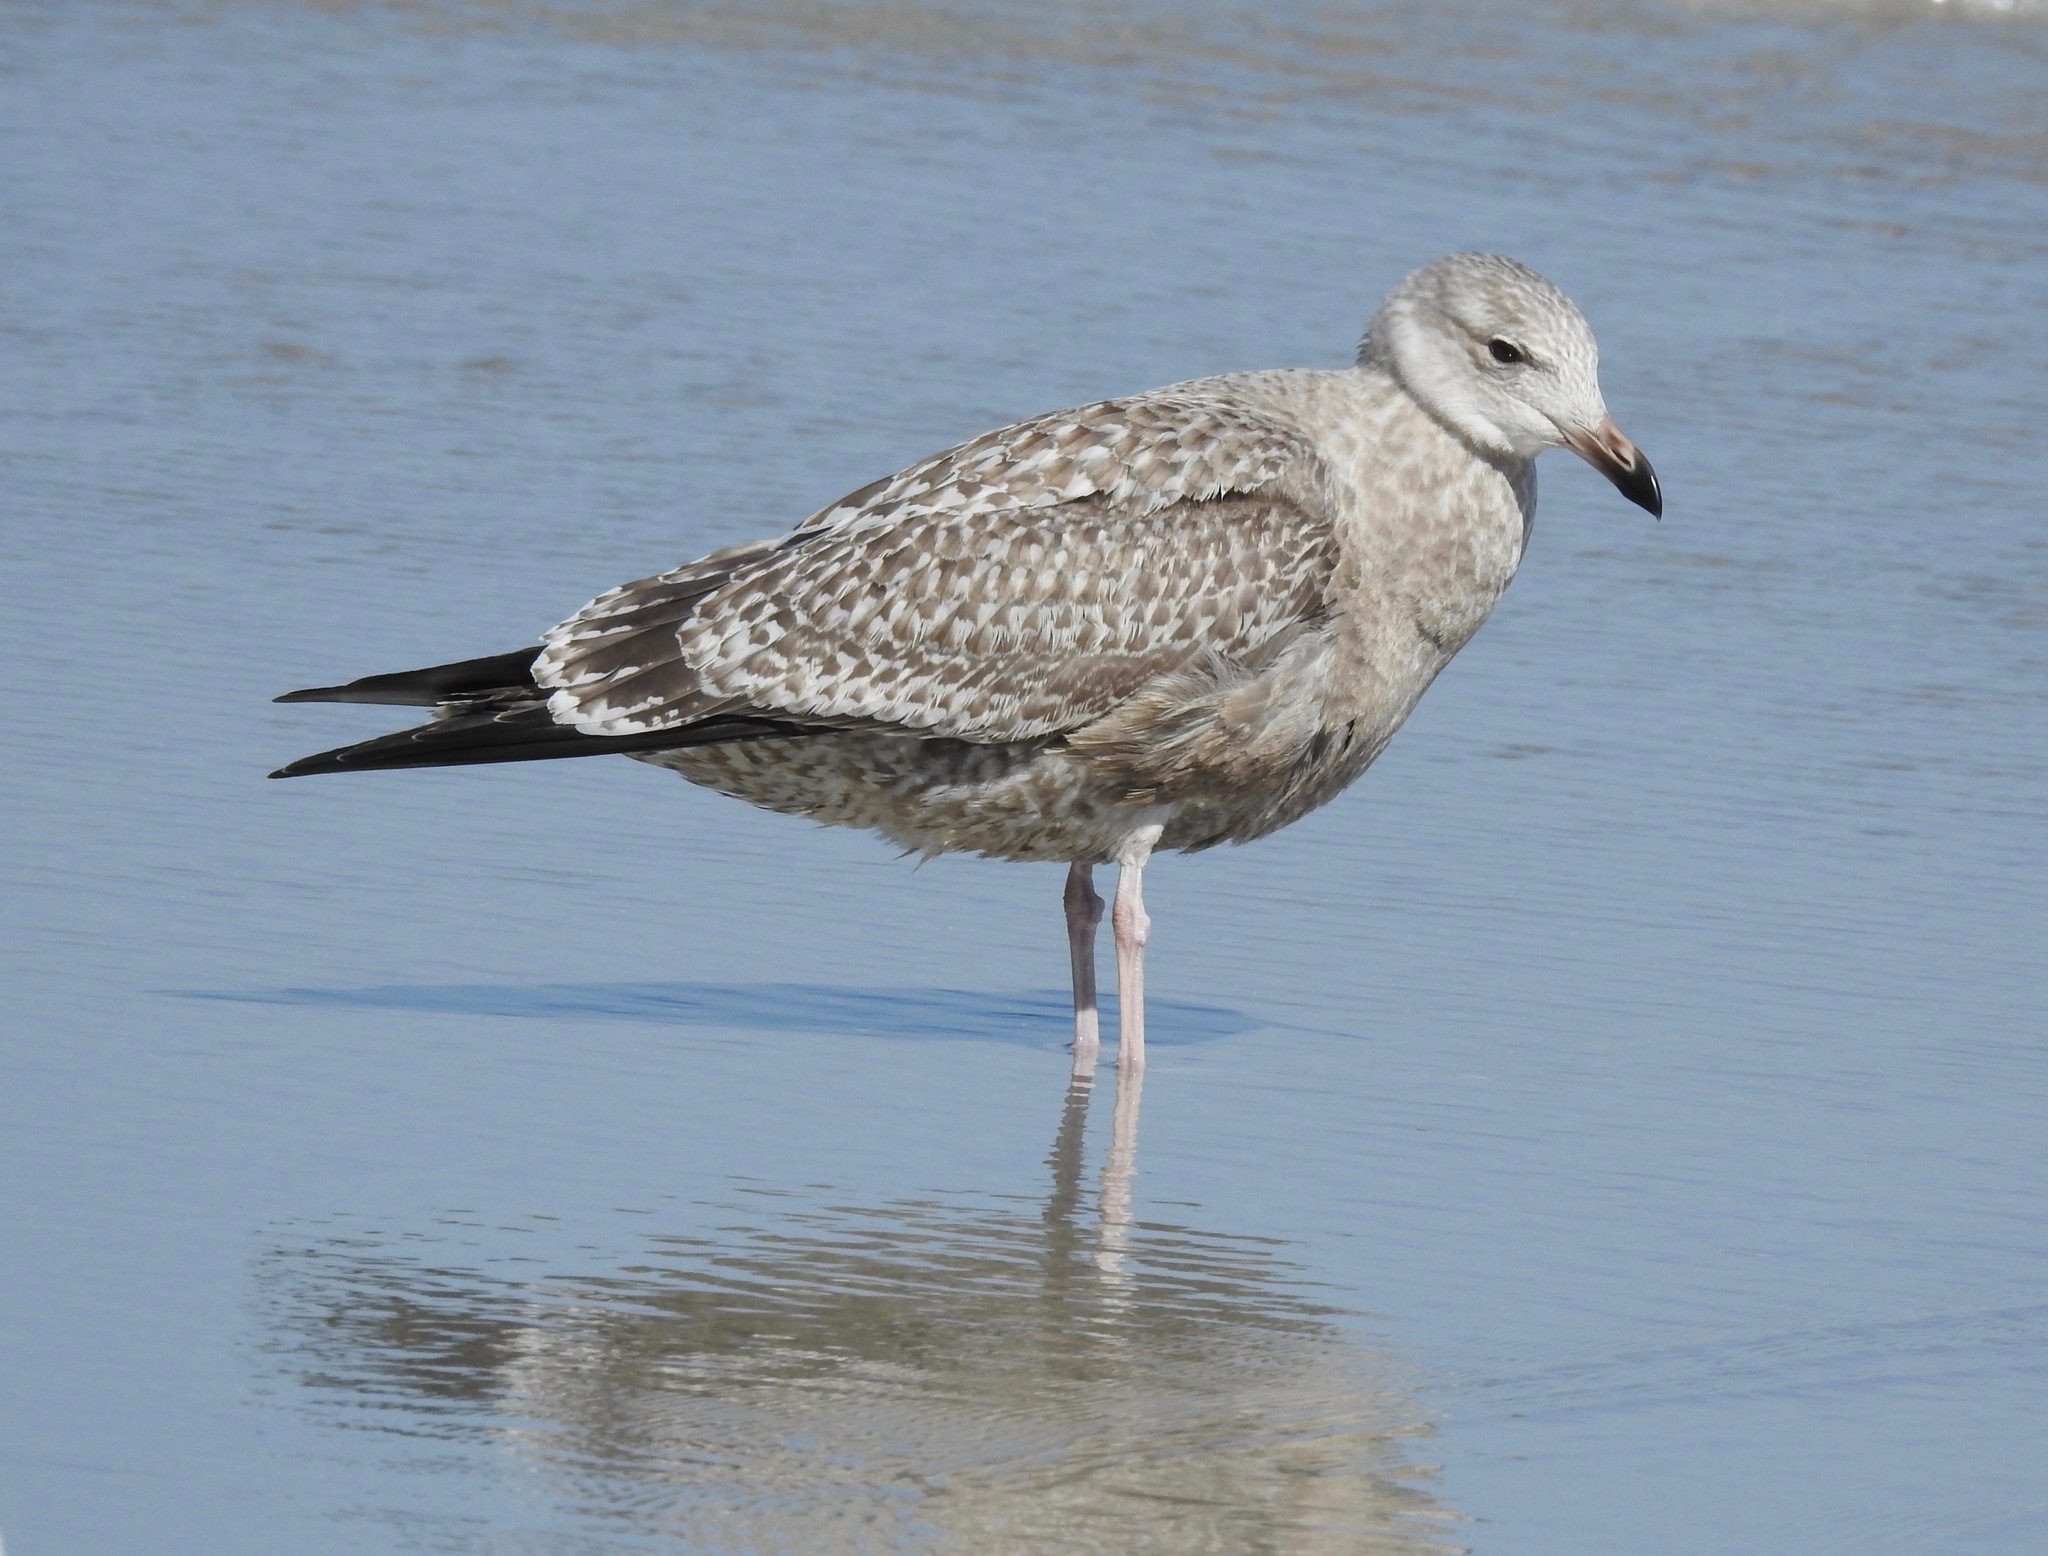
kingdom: Animalia
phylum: Chordata
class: Aves
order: Charadriiformes
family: Laridae
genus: Larus
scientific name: Larus argentatus
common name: Herring gull
